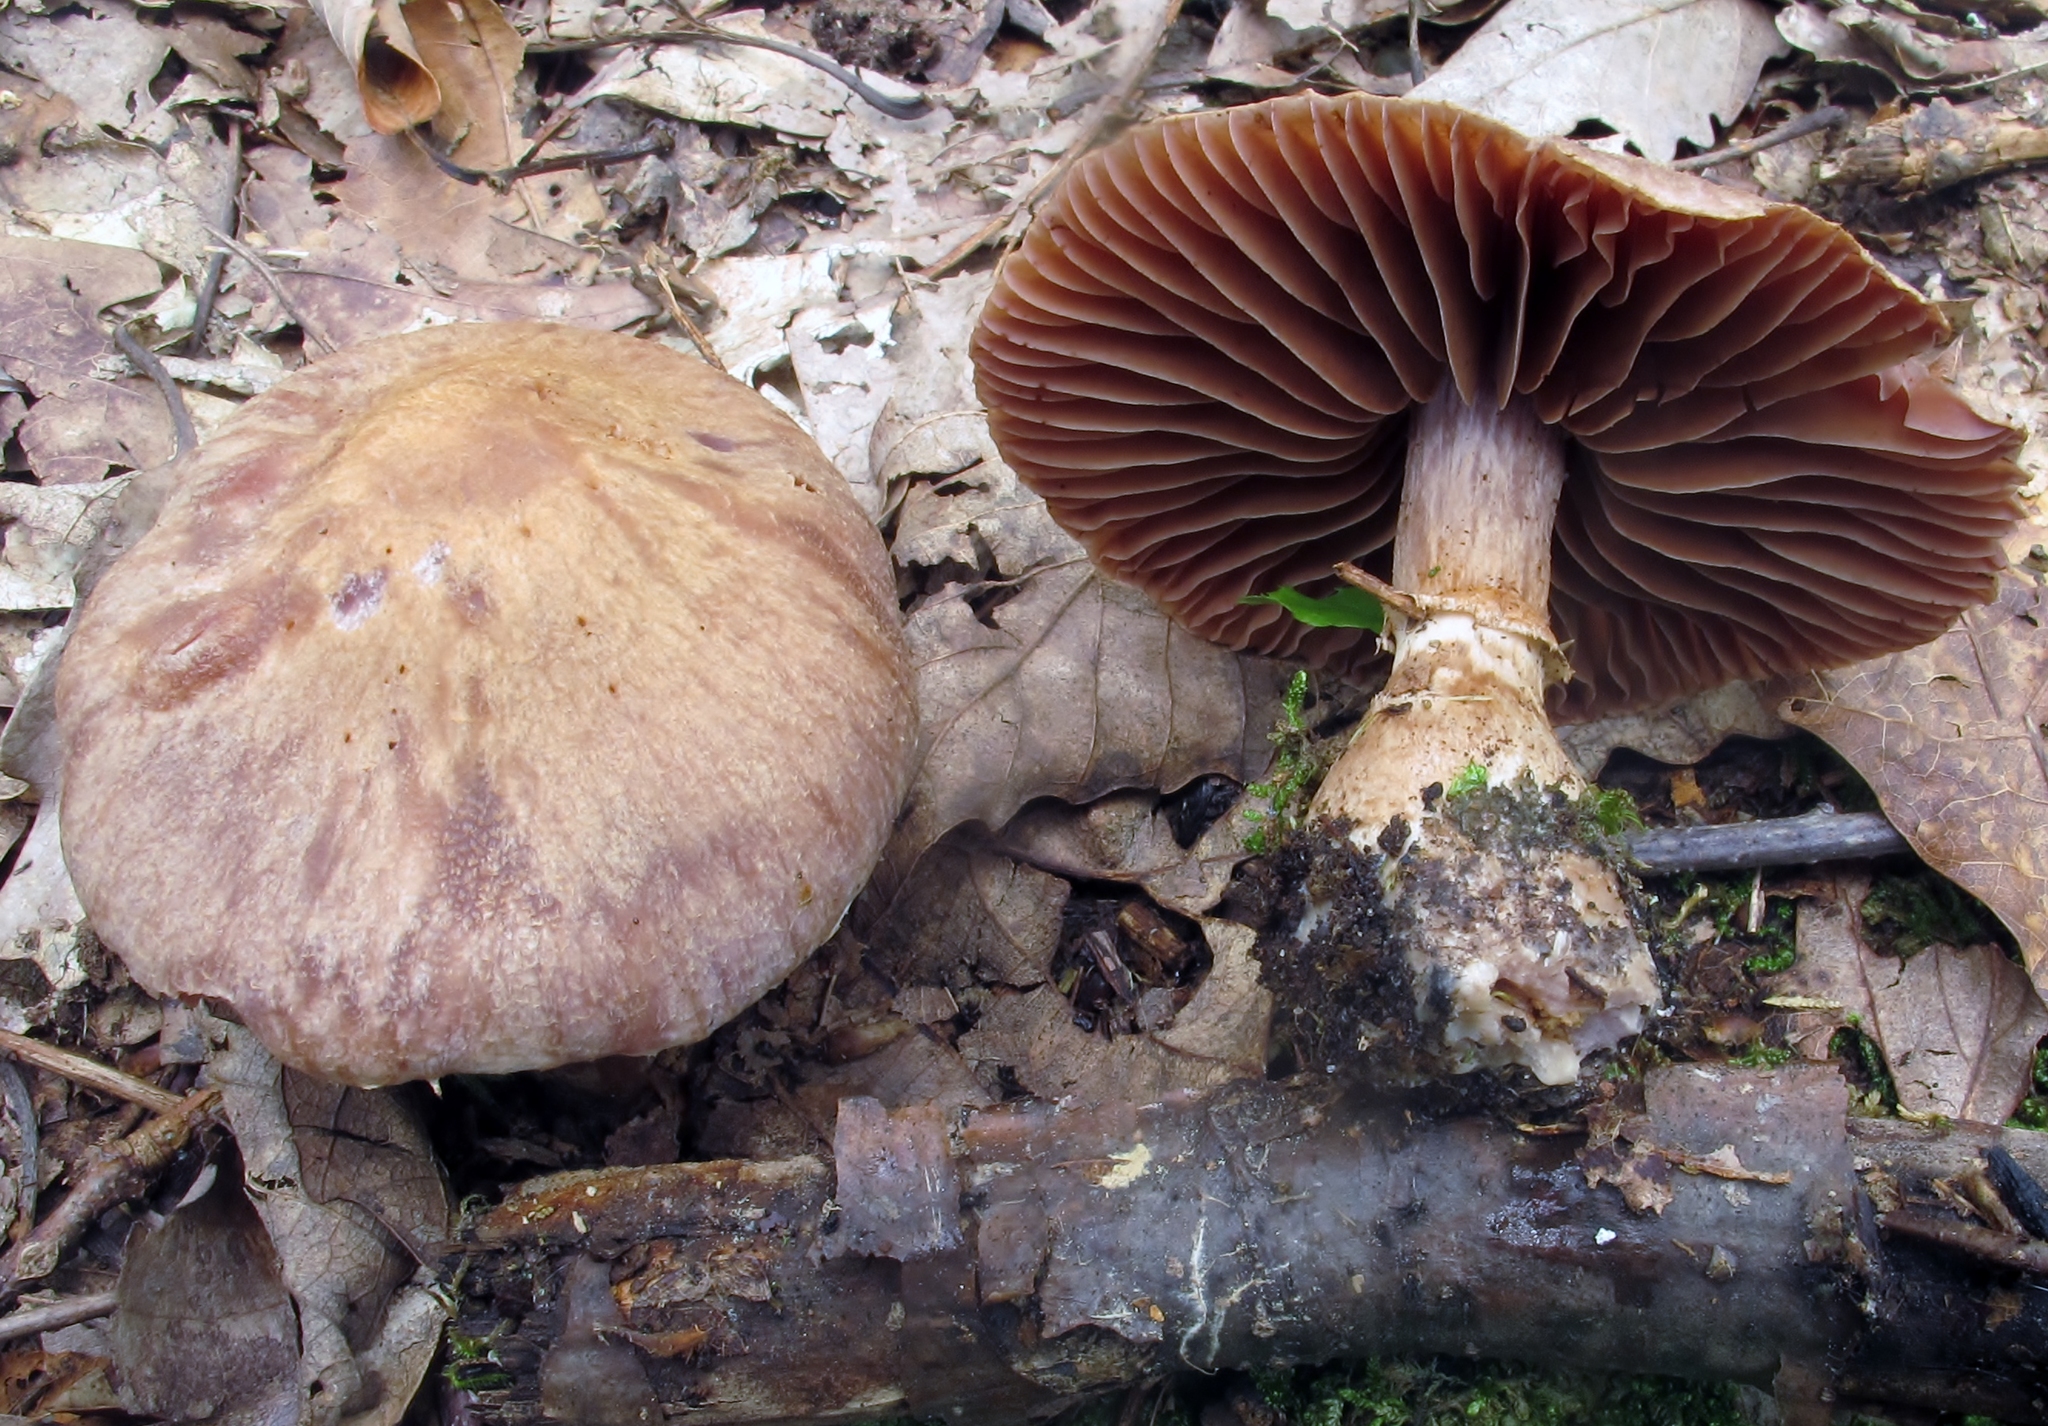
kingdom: Fungi
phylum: Basidiomycota
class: Agaricomycetes
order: Agaricales
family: Cortinariaceae
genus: Cortinarius
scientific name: Cortinarius torvus
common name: Stocking webcap
